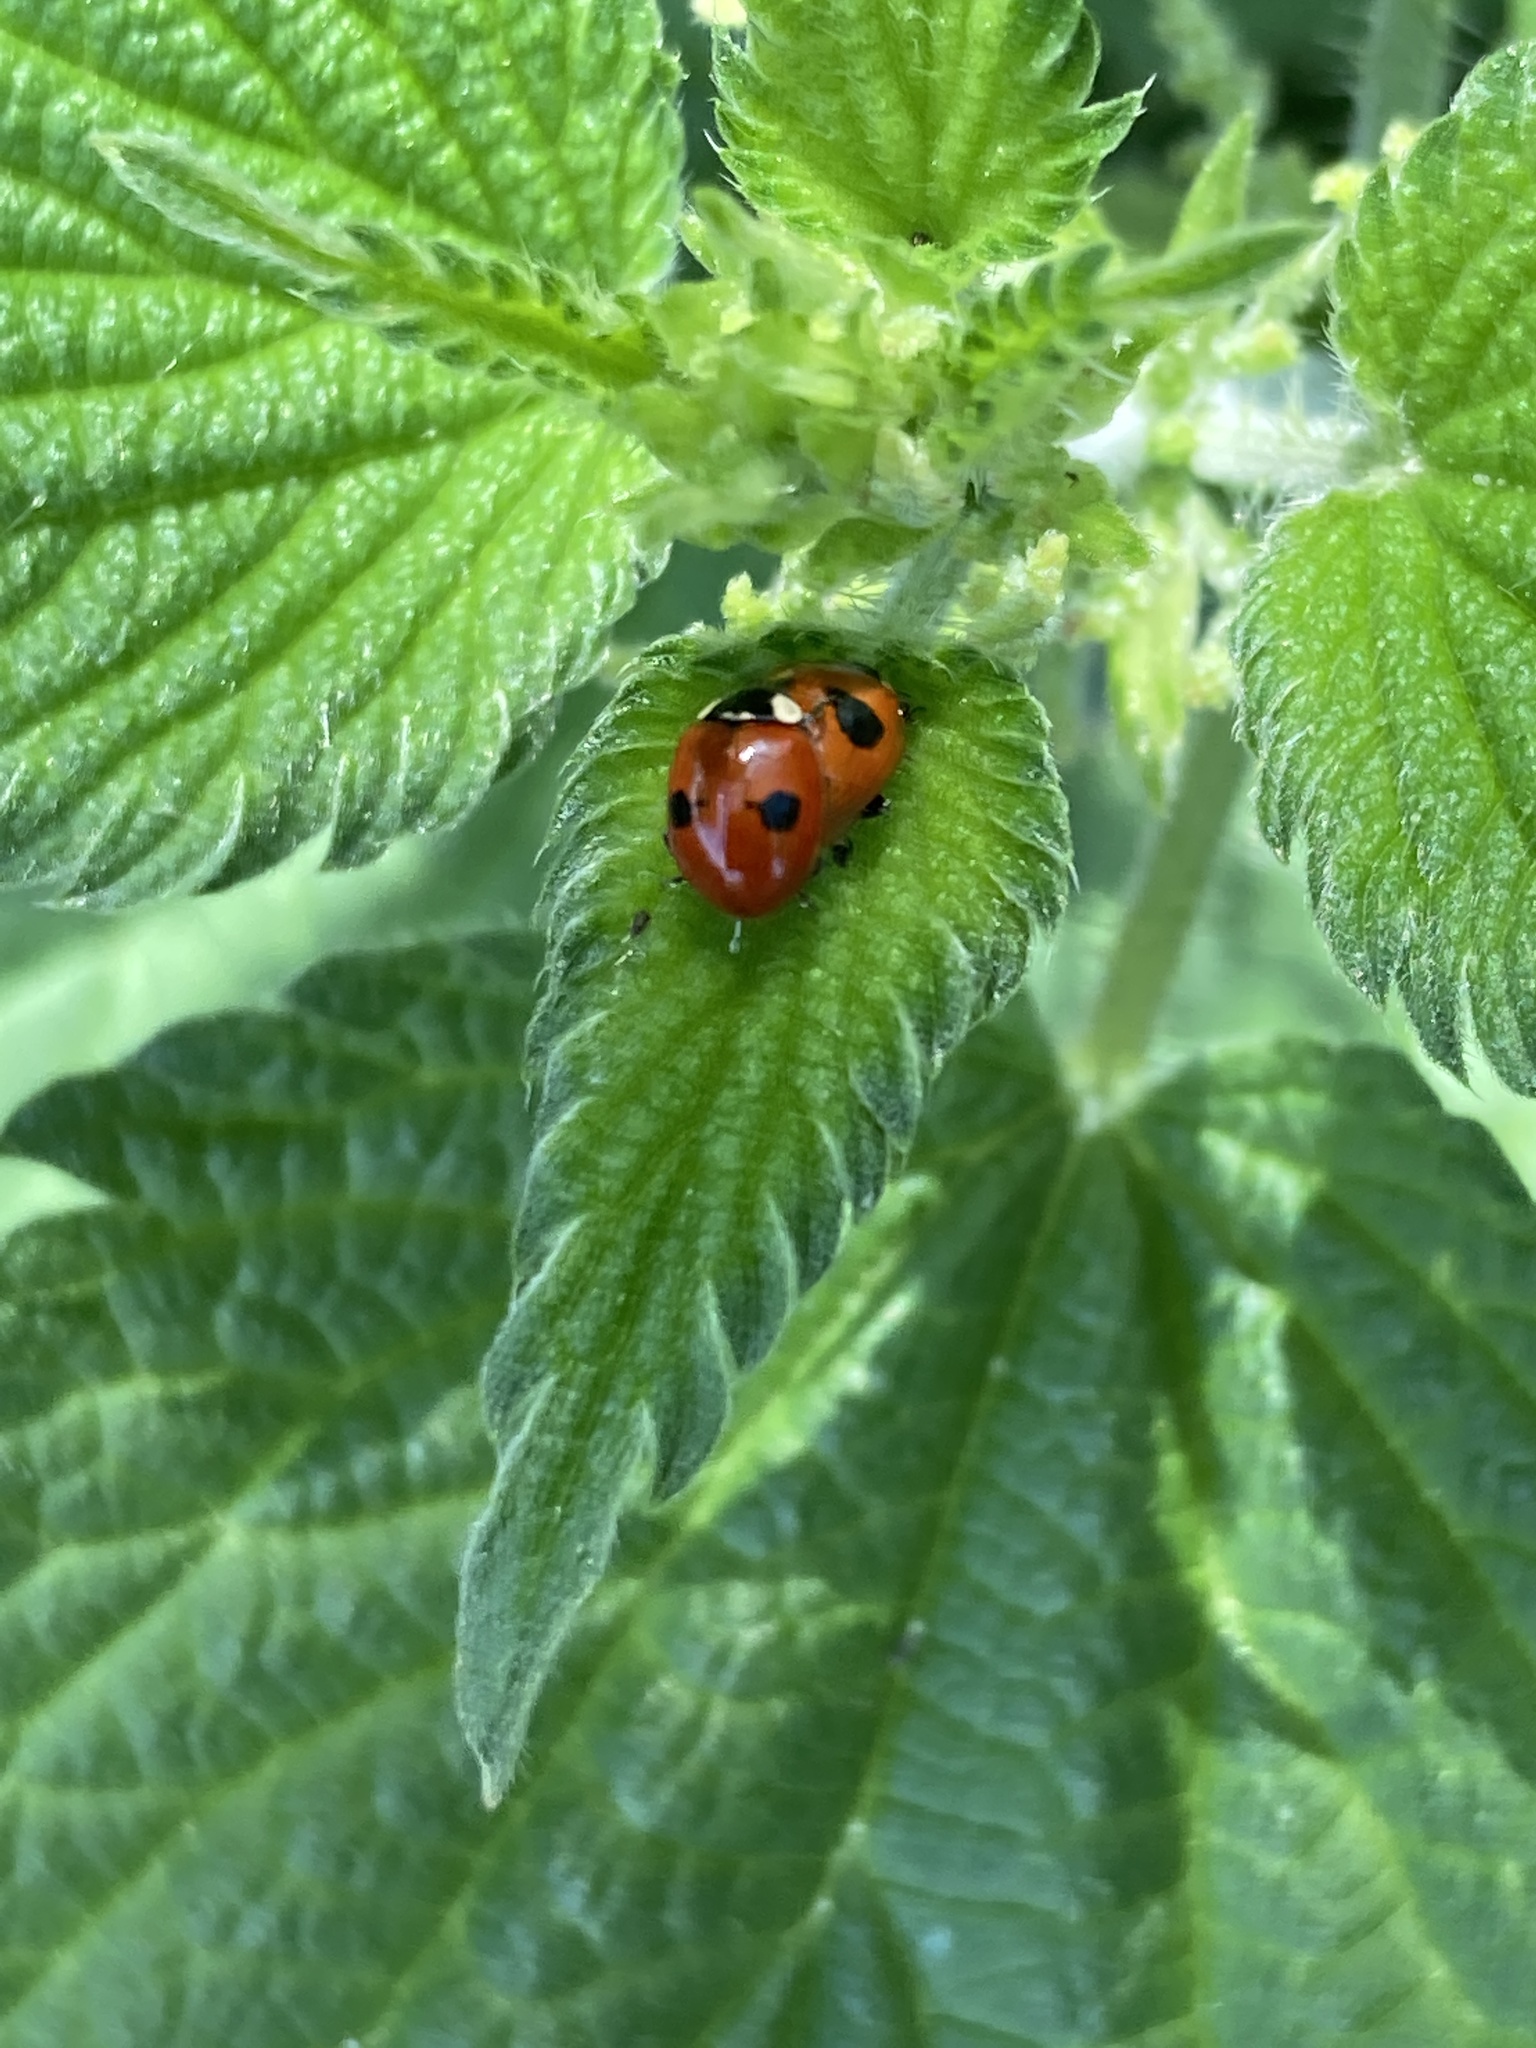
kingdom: Animalia
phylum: Arthropoda
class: Insecta
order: Coleoptera
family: Coccinellidae
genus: Adalia
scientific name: Adalia bipunctata
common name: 2-spot ladybird
